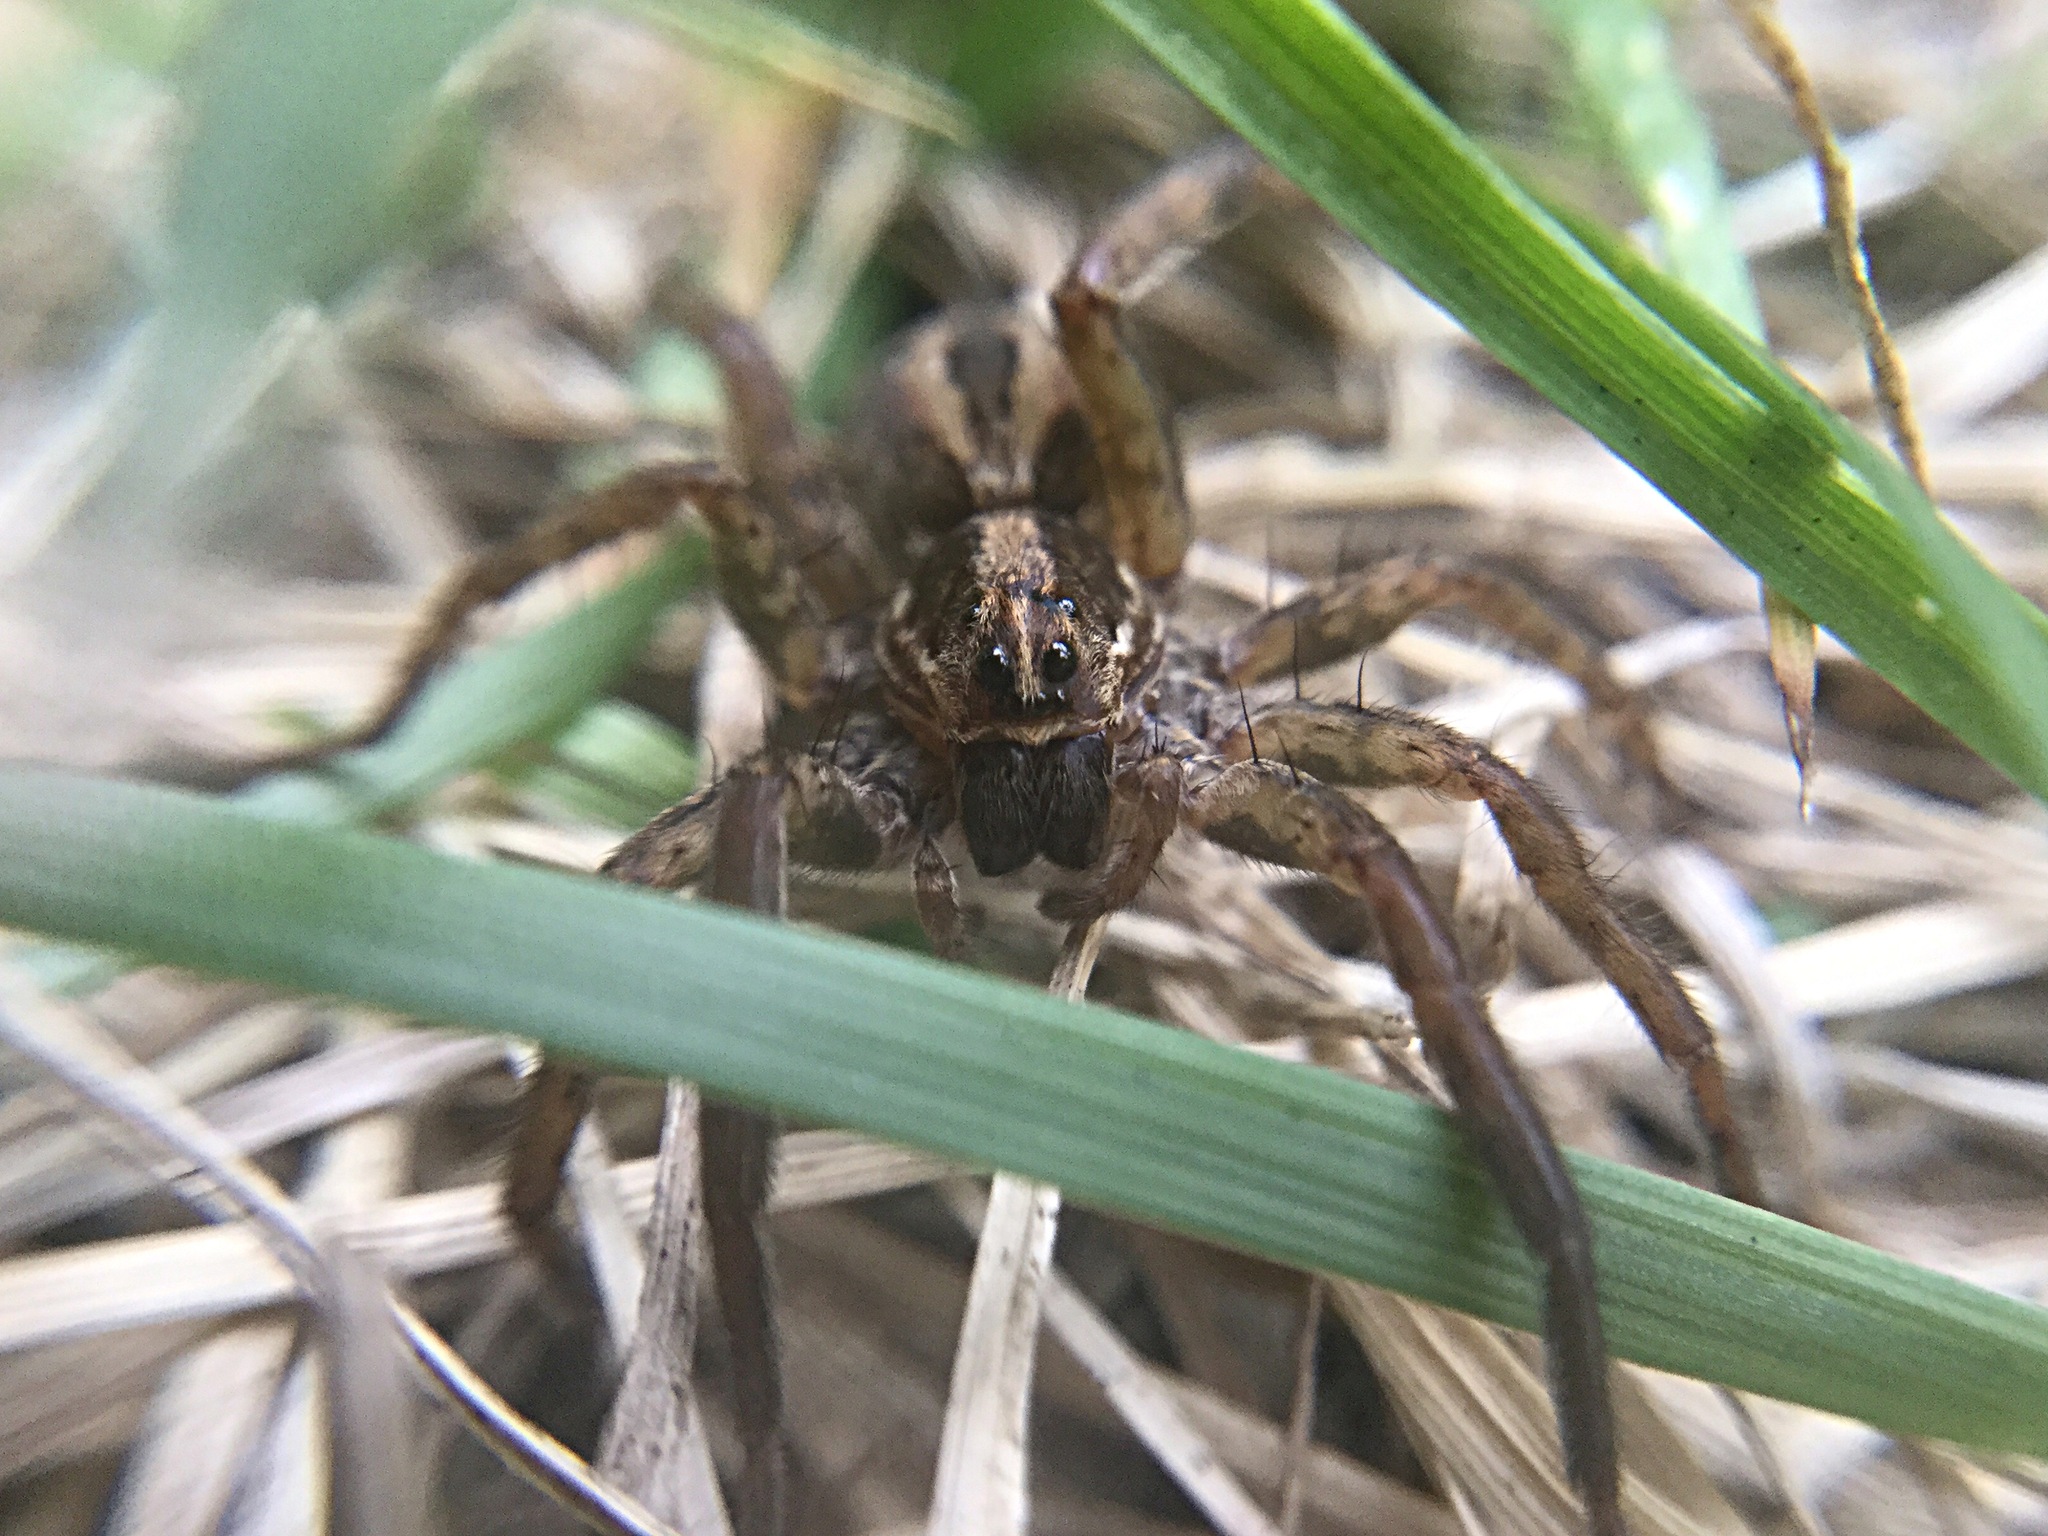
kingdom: Animalia
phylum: Arthropoda
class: Arachnida
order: Araneae
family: Lycosidae
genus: Schizocosa
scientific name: Schizocosa avida
